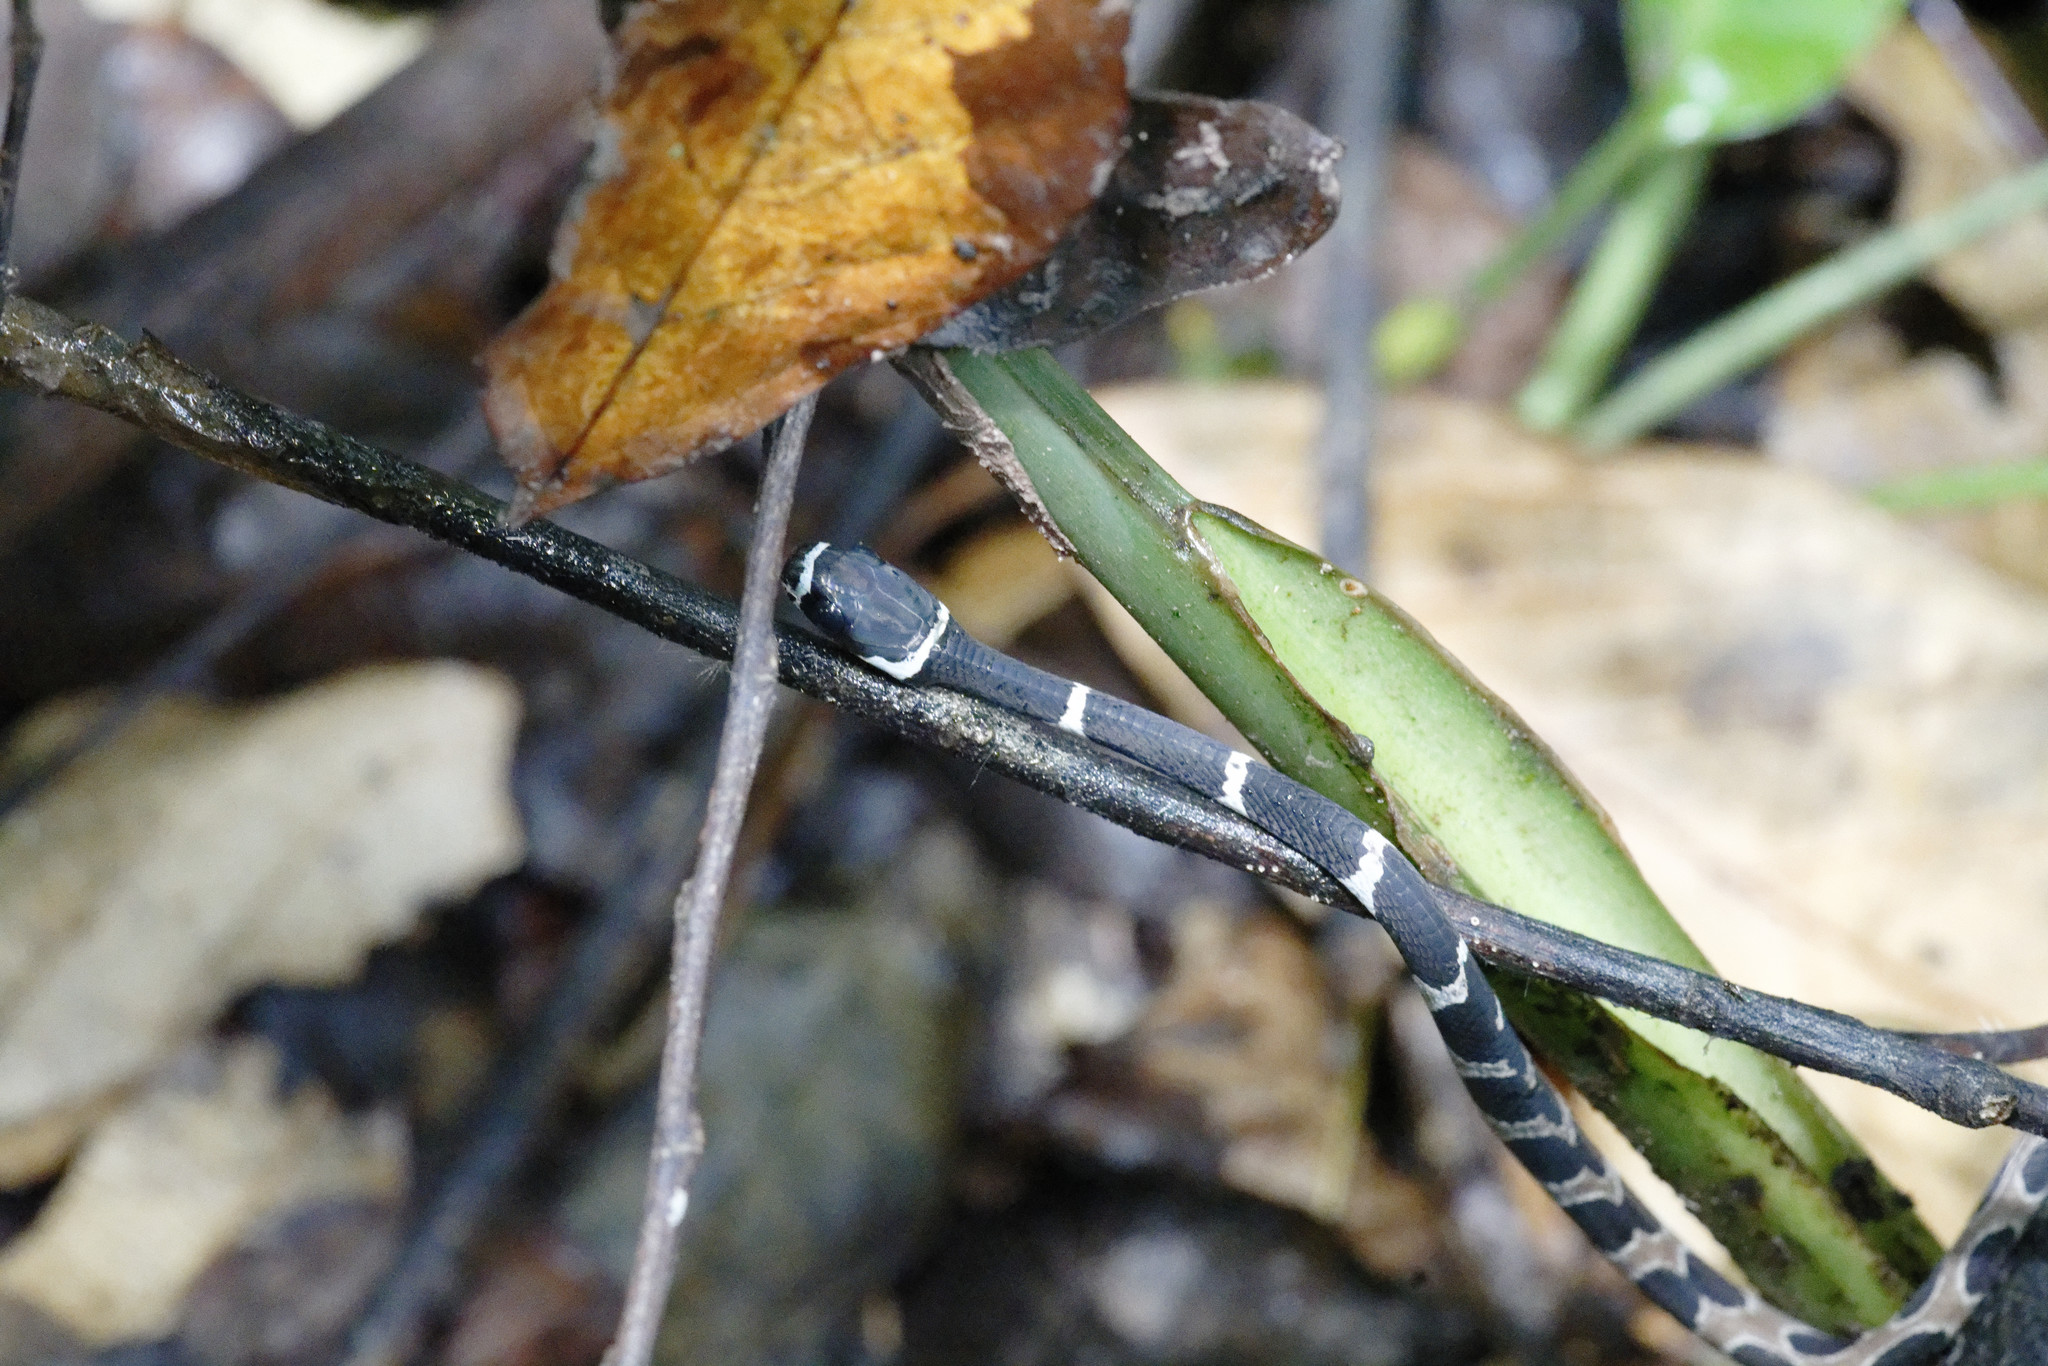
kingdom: Animalia
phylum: Chordata
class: Squamata
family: Colubridae
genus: Dipsas
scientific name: Dipsas catesbyi
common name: Catesby's snail-eater
